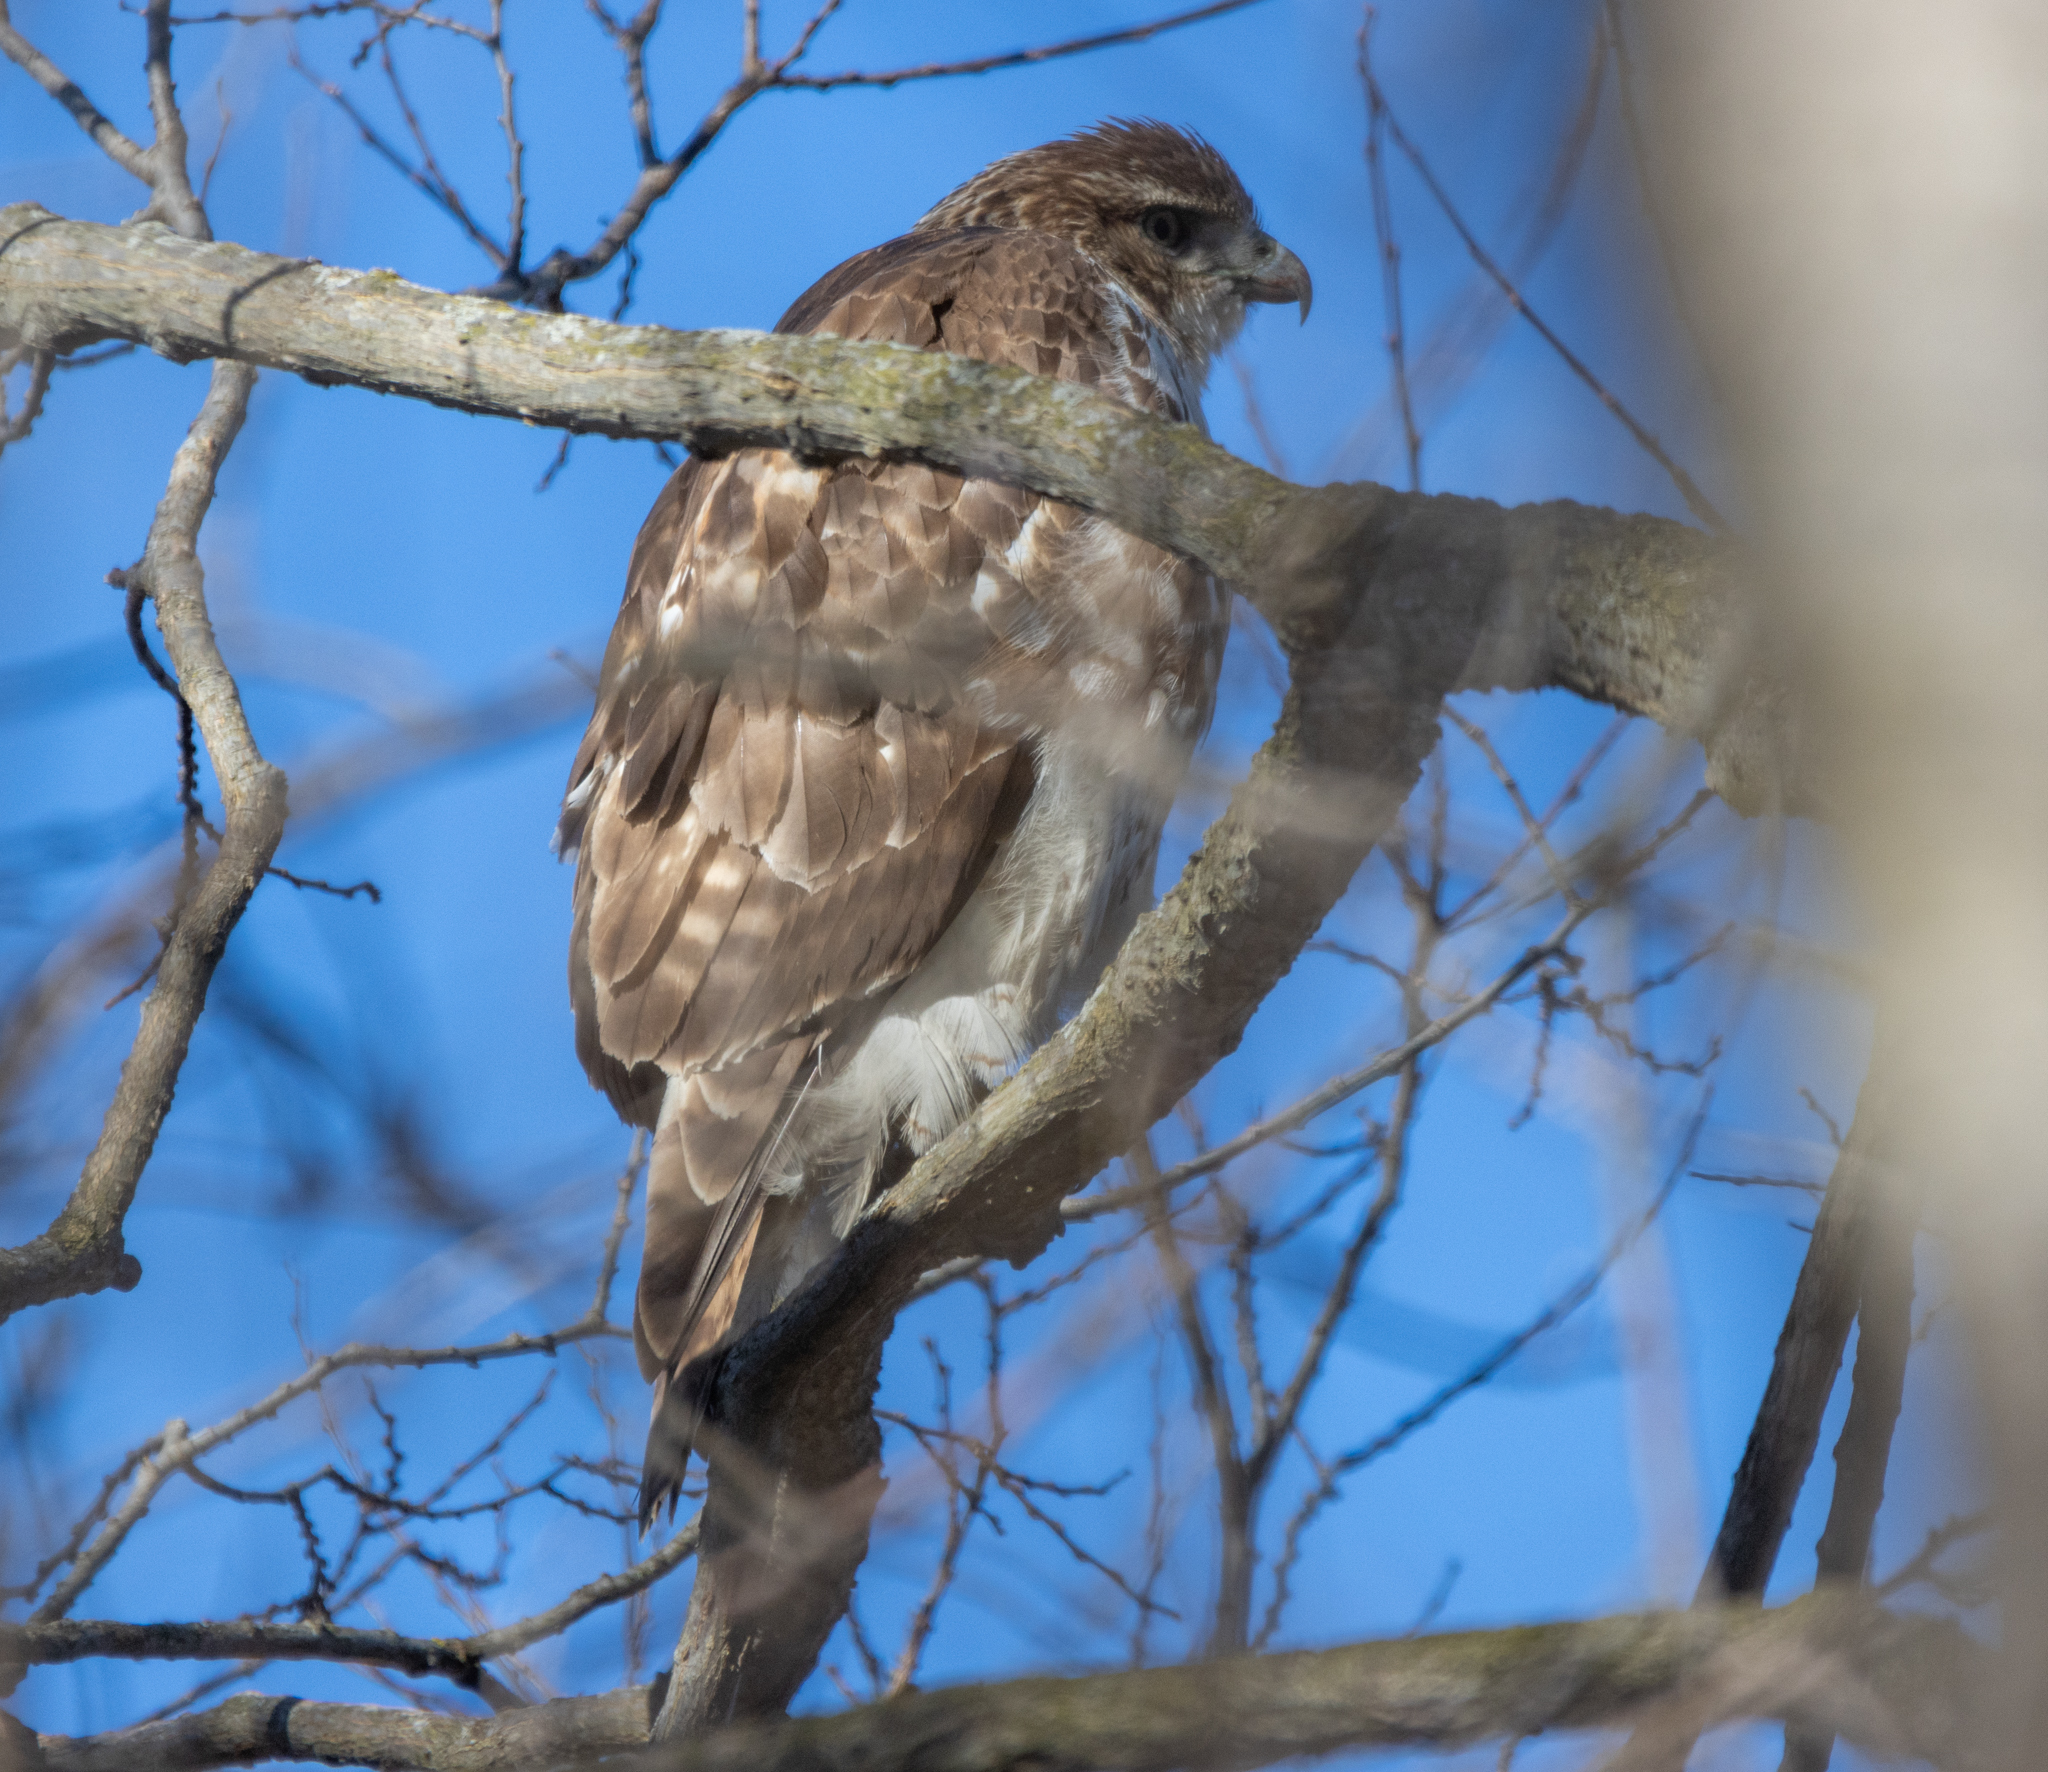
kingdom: Animalia
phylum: Chordata
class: Aves
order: Accipitriformes
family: Accipitridae
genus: Buteo
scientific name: Buteo jamaicensis
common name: Red-tailed hawk
